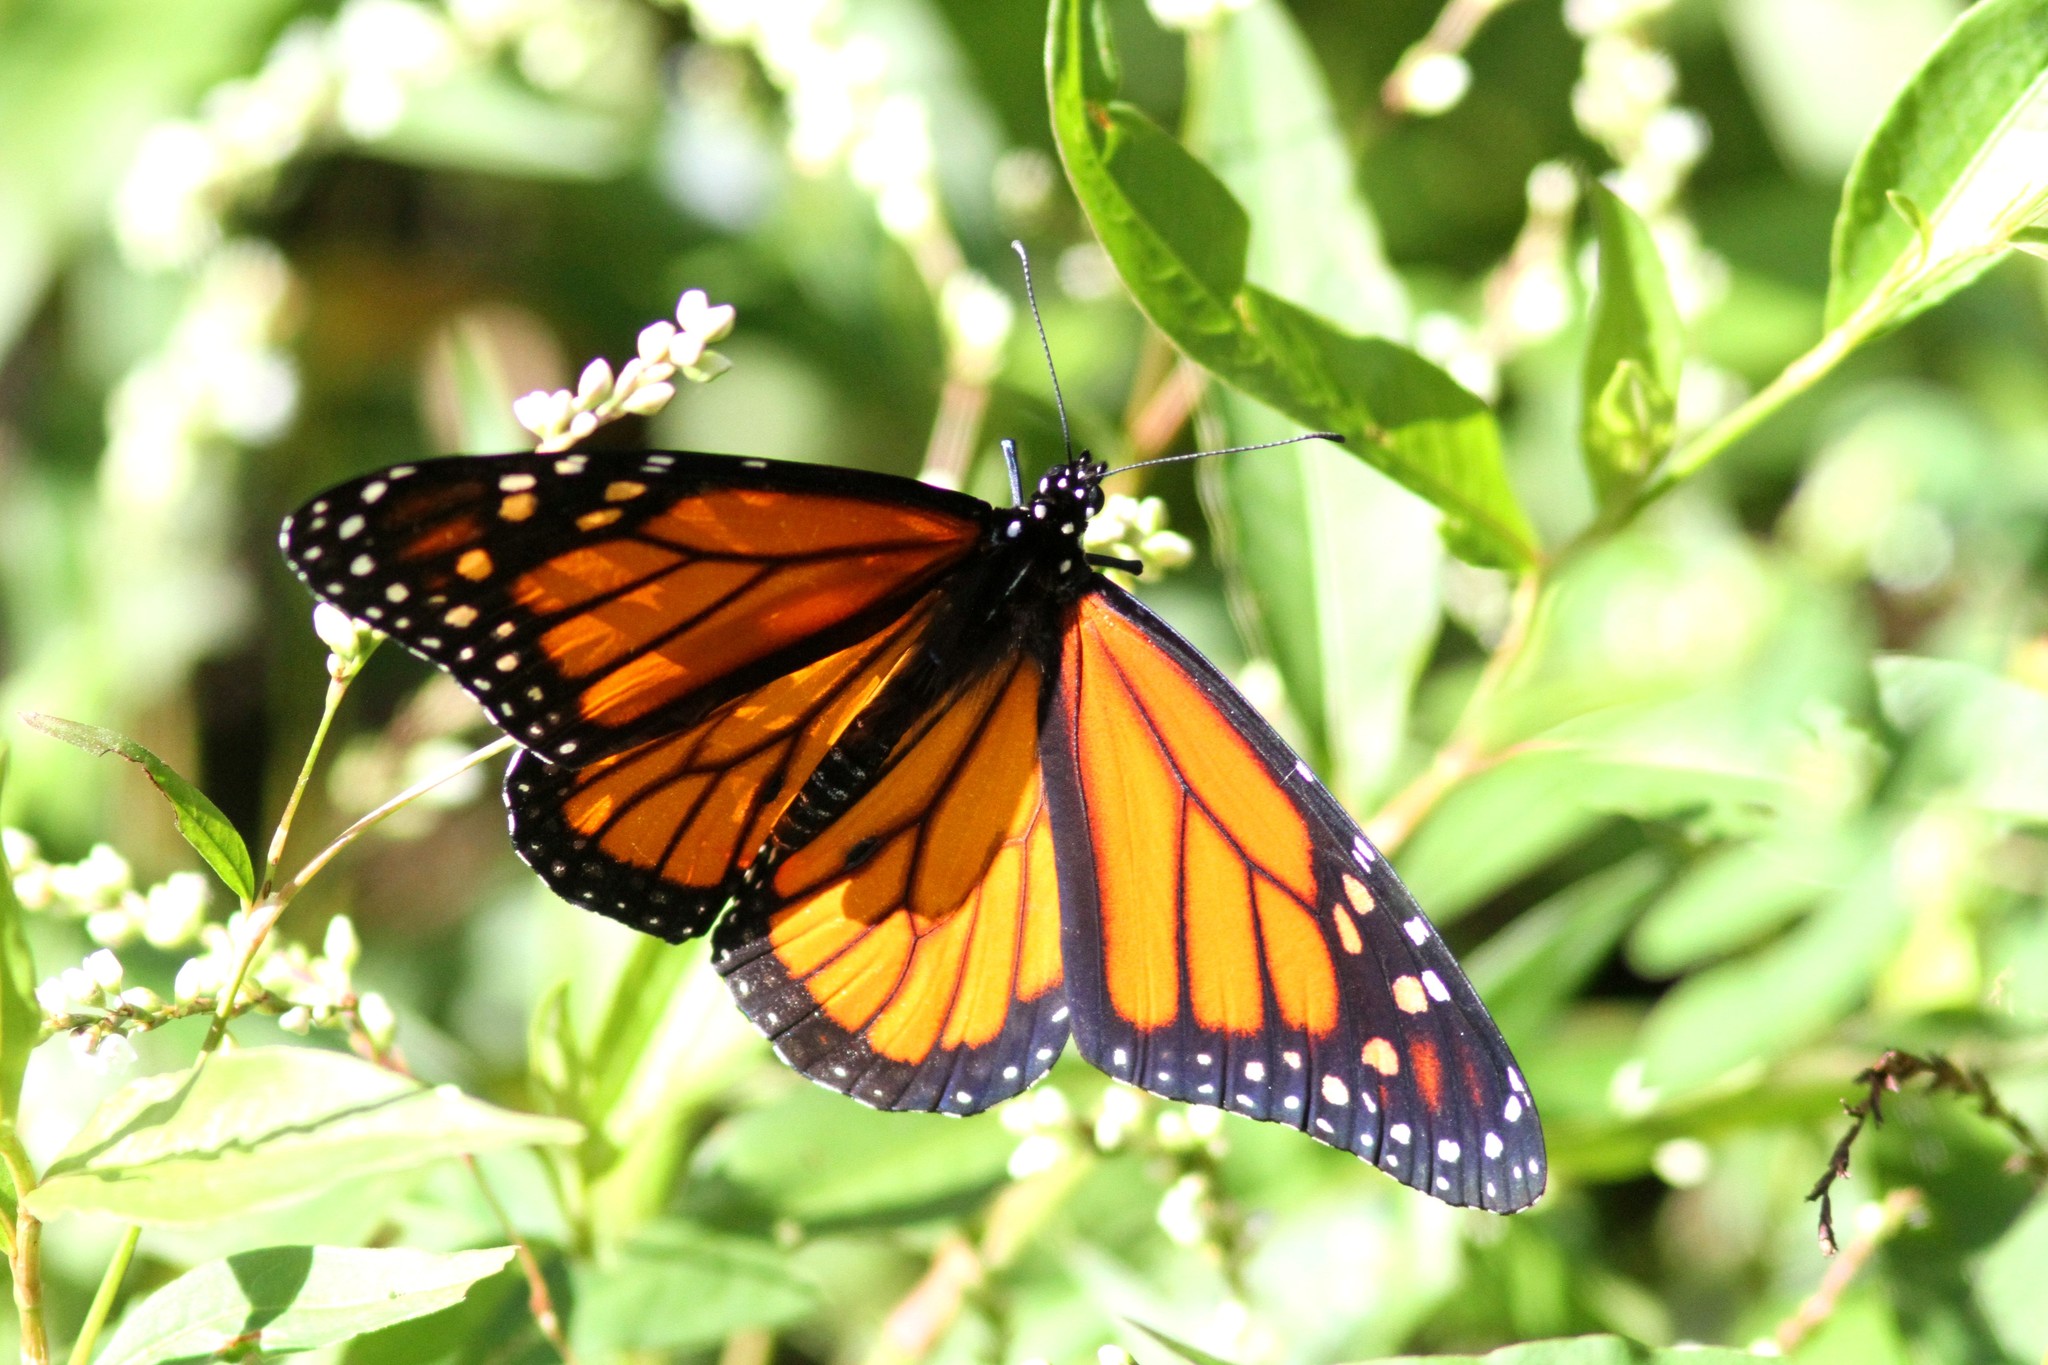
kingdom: Animalia
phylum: Arthropoda
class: Insecta
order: Lepidoptera
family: Nymphalidae
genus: Danaus
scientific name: Danaus plexippus
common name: Monarch
